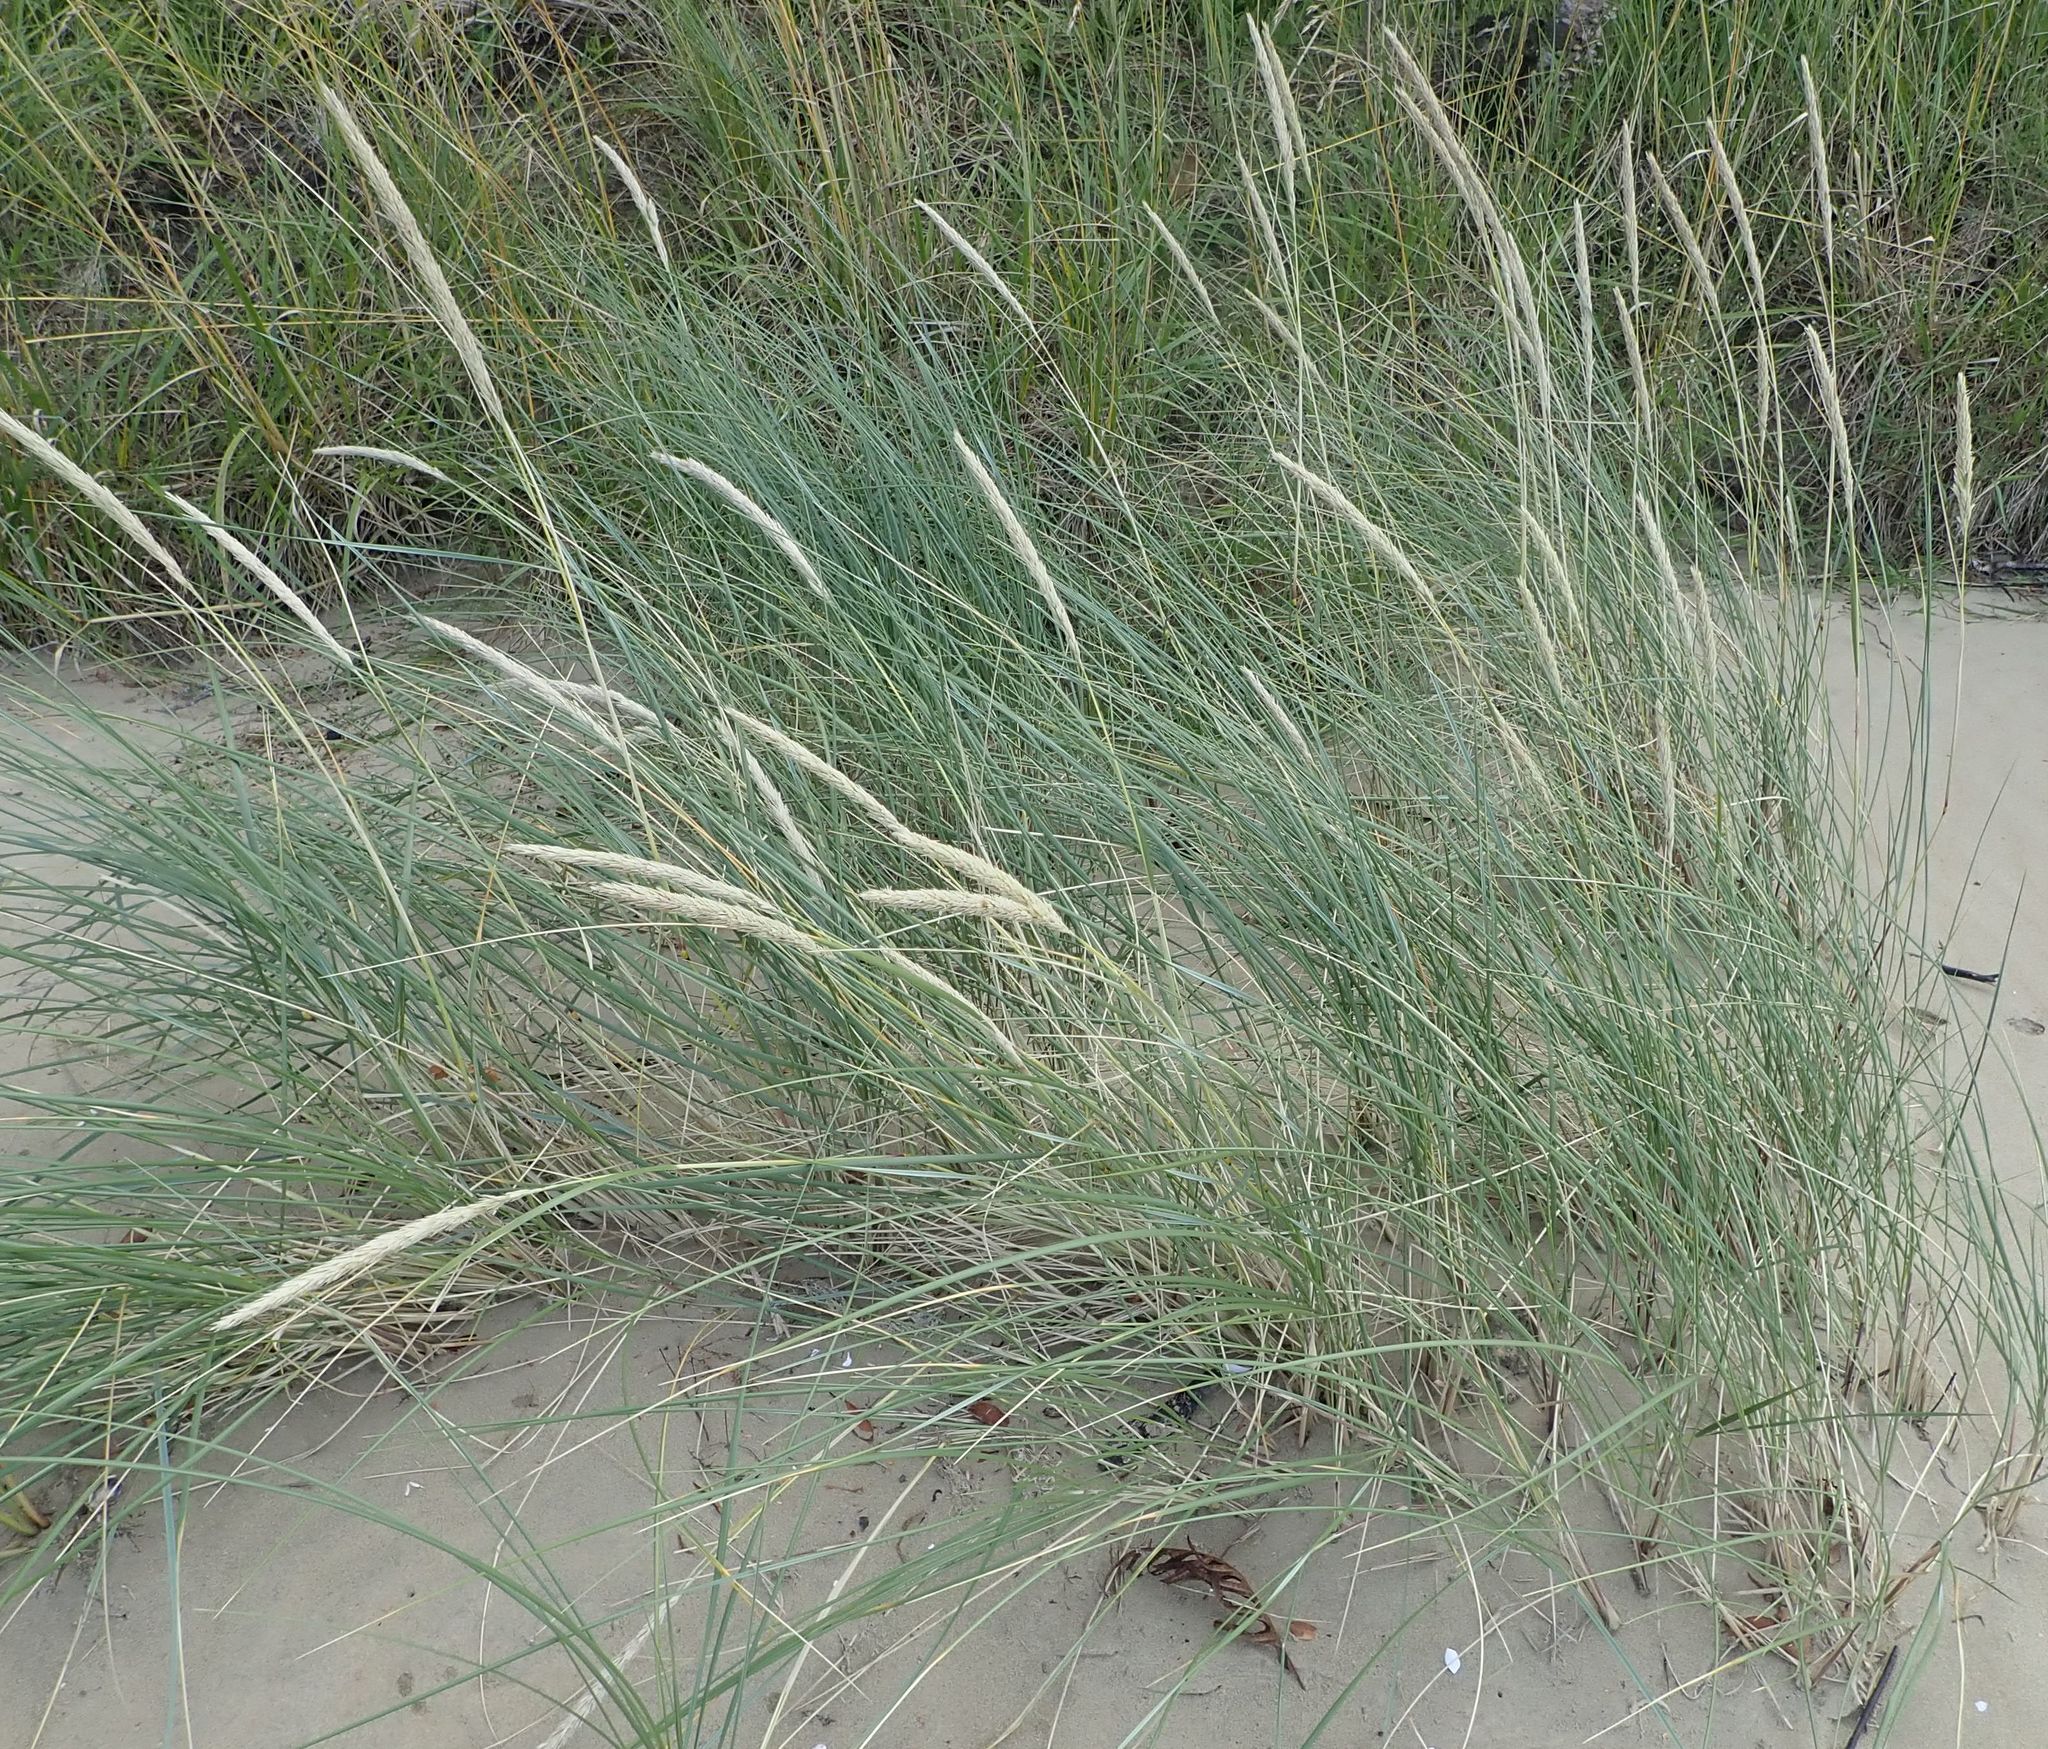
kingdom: Plantae
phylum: Tracheophyta
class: Liliopsida
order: Poales
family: Poaceae
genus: Calamagrostis
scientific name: Calamagrostis arenaria
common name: European beachgrass
